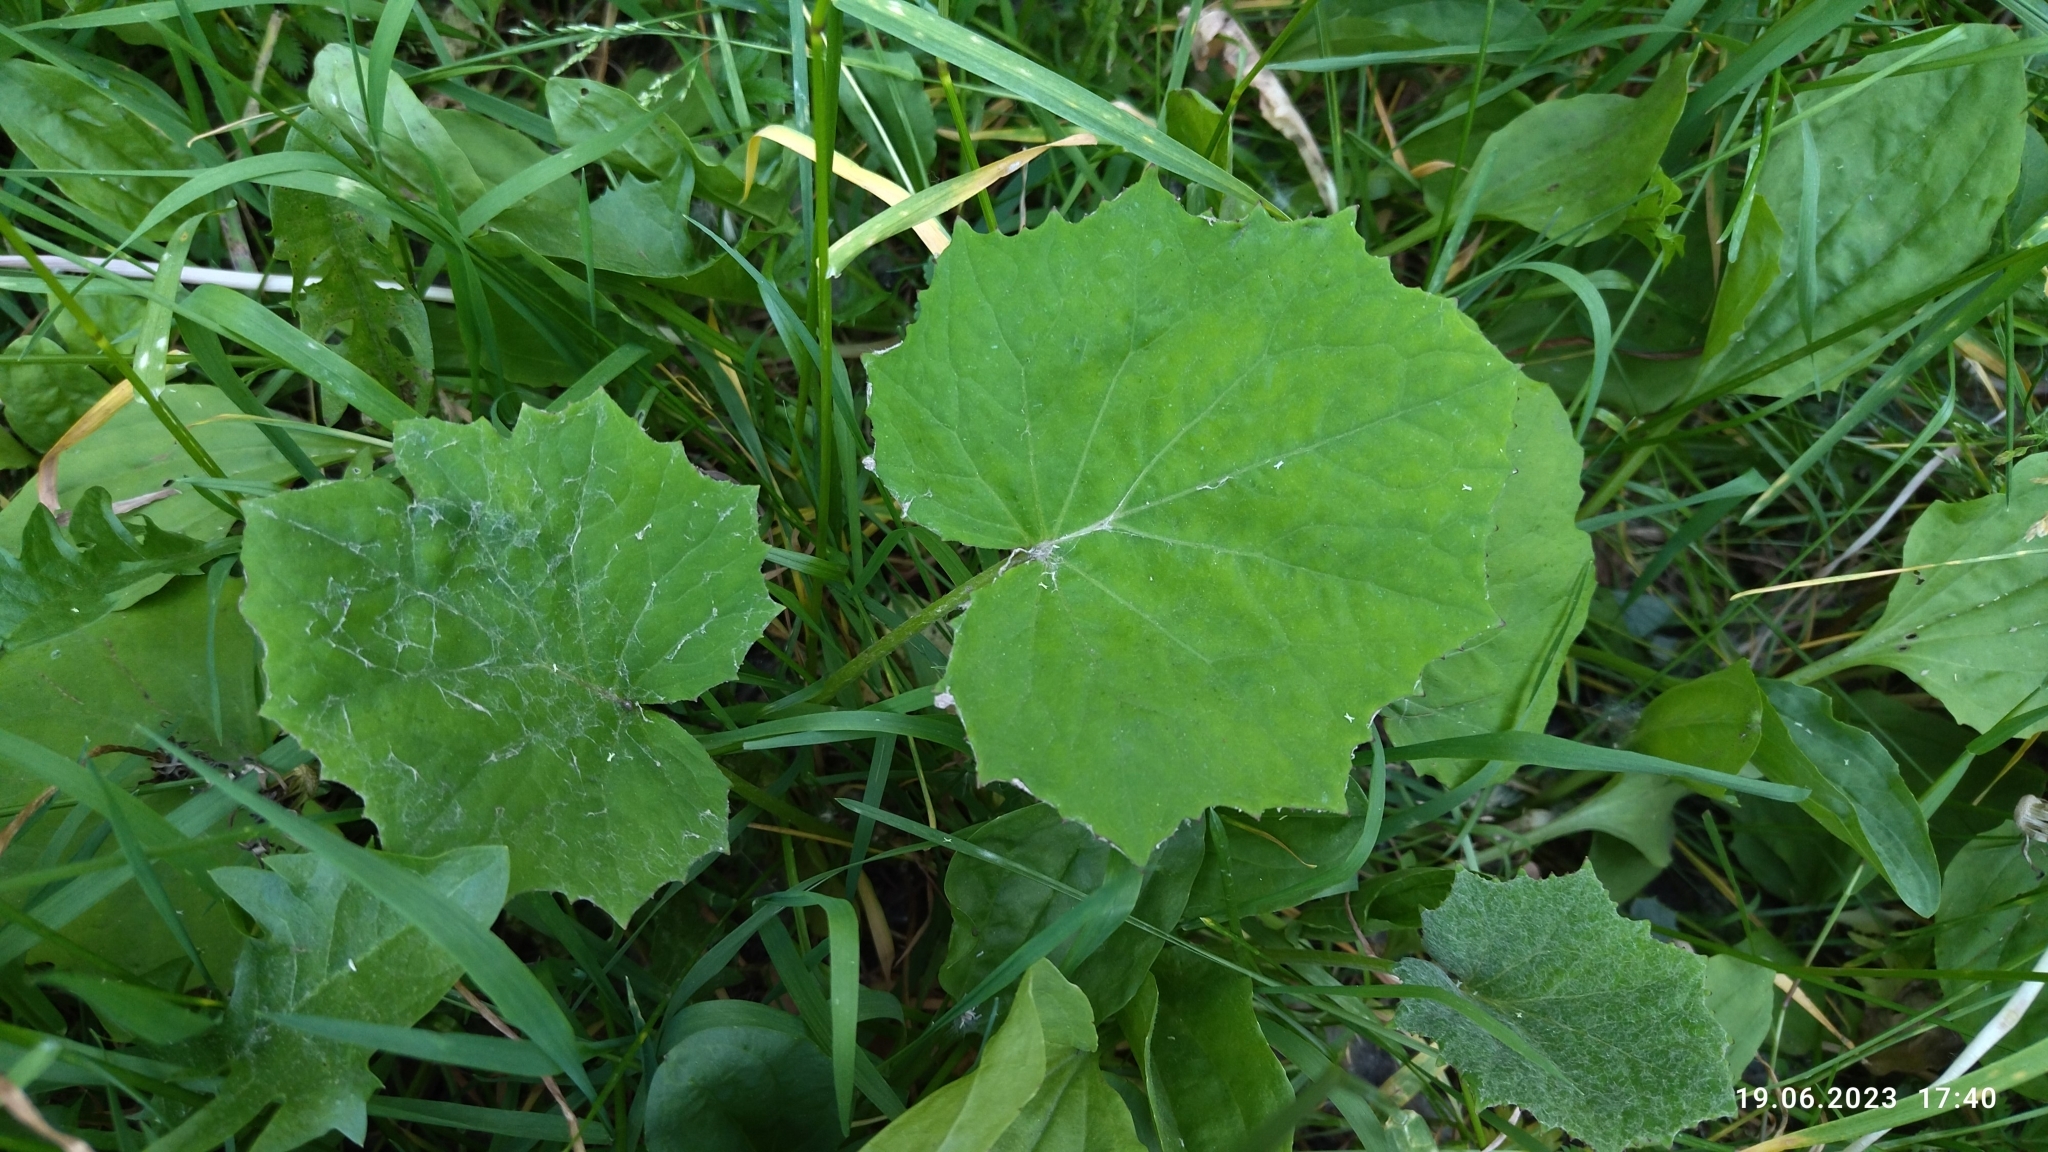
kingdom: Plantae
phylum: Tracheophyta
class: Magnoliopsida
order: Asterales
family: Asteraceae
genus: Tussilago
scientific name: Tussilago farfara
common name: Coltsfoot
